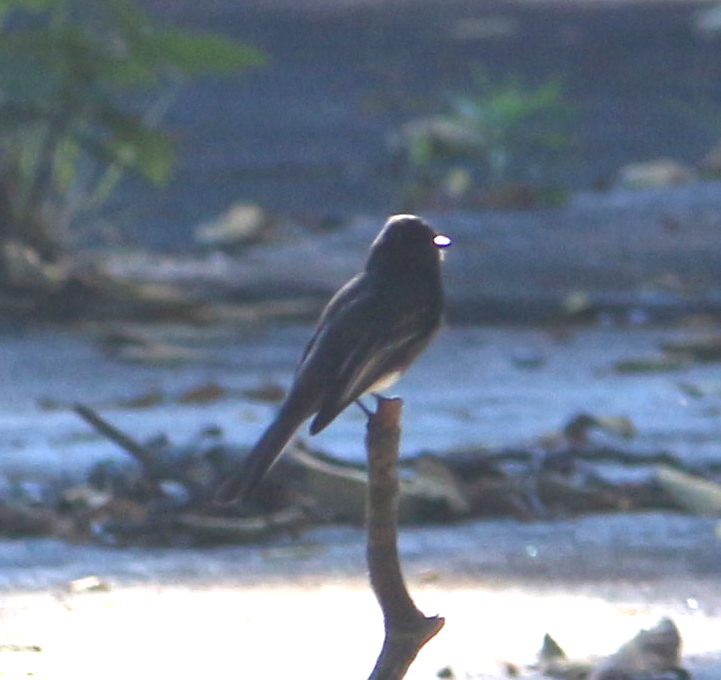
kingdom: Animalia
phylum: Chordata
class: Aves
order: Passeriformes
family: Tyrannidae
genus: Sayornis
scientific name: Sayornis nigricans
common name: Black phoebe
